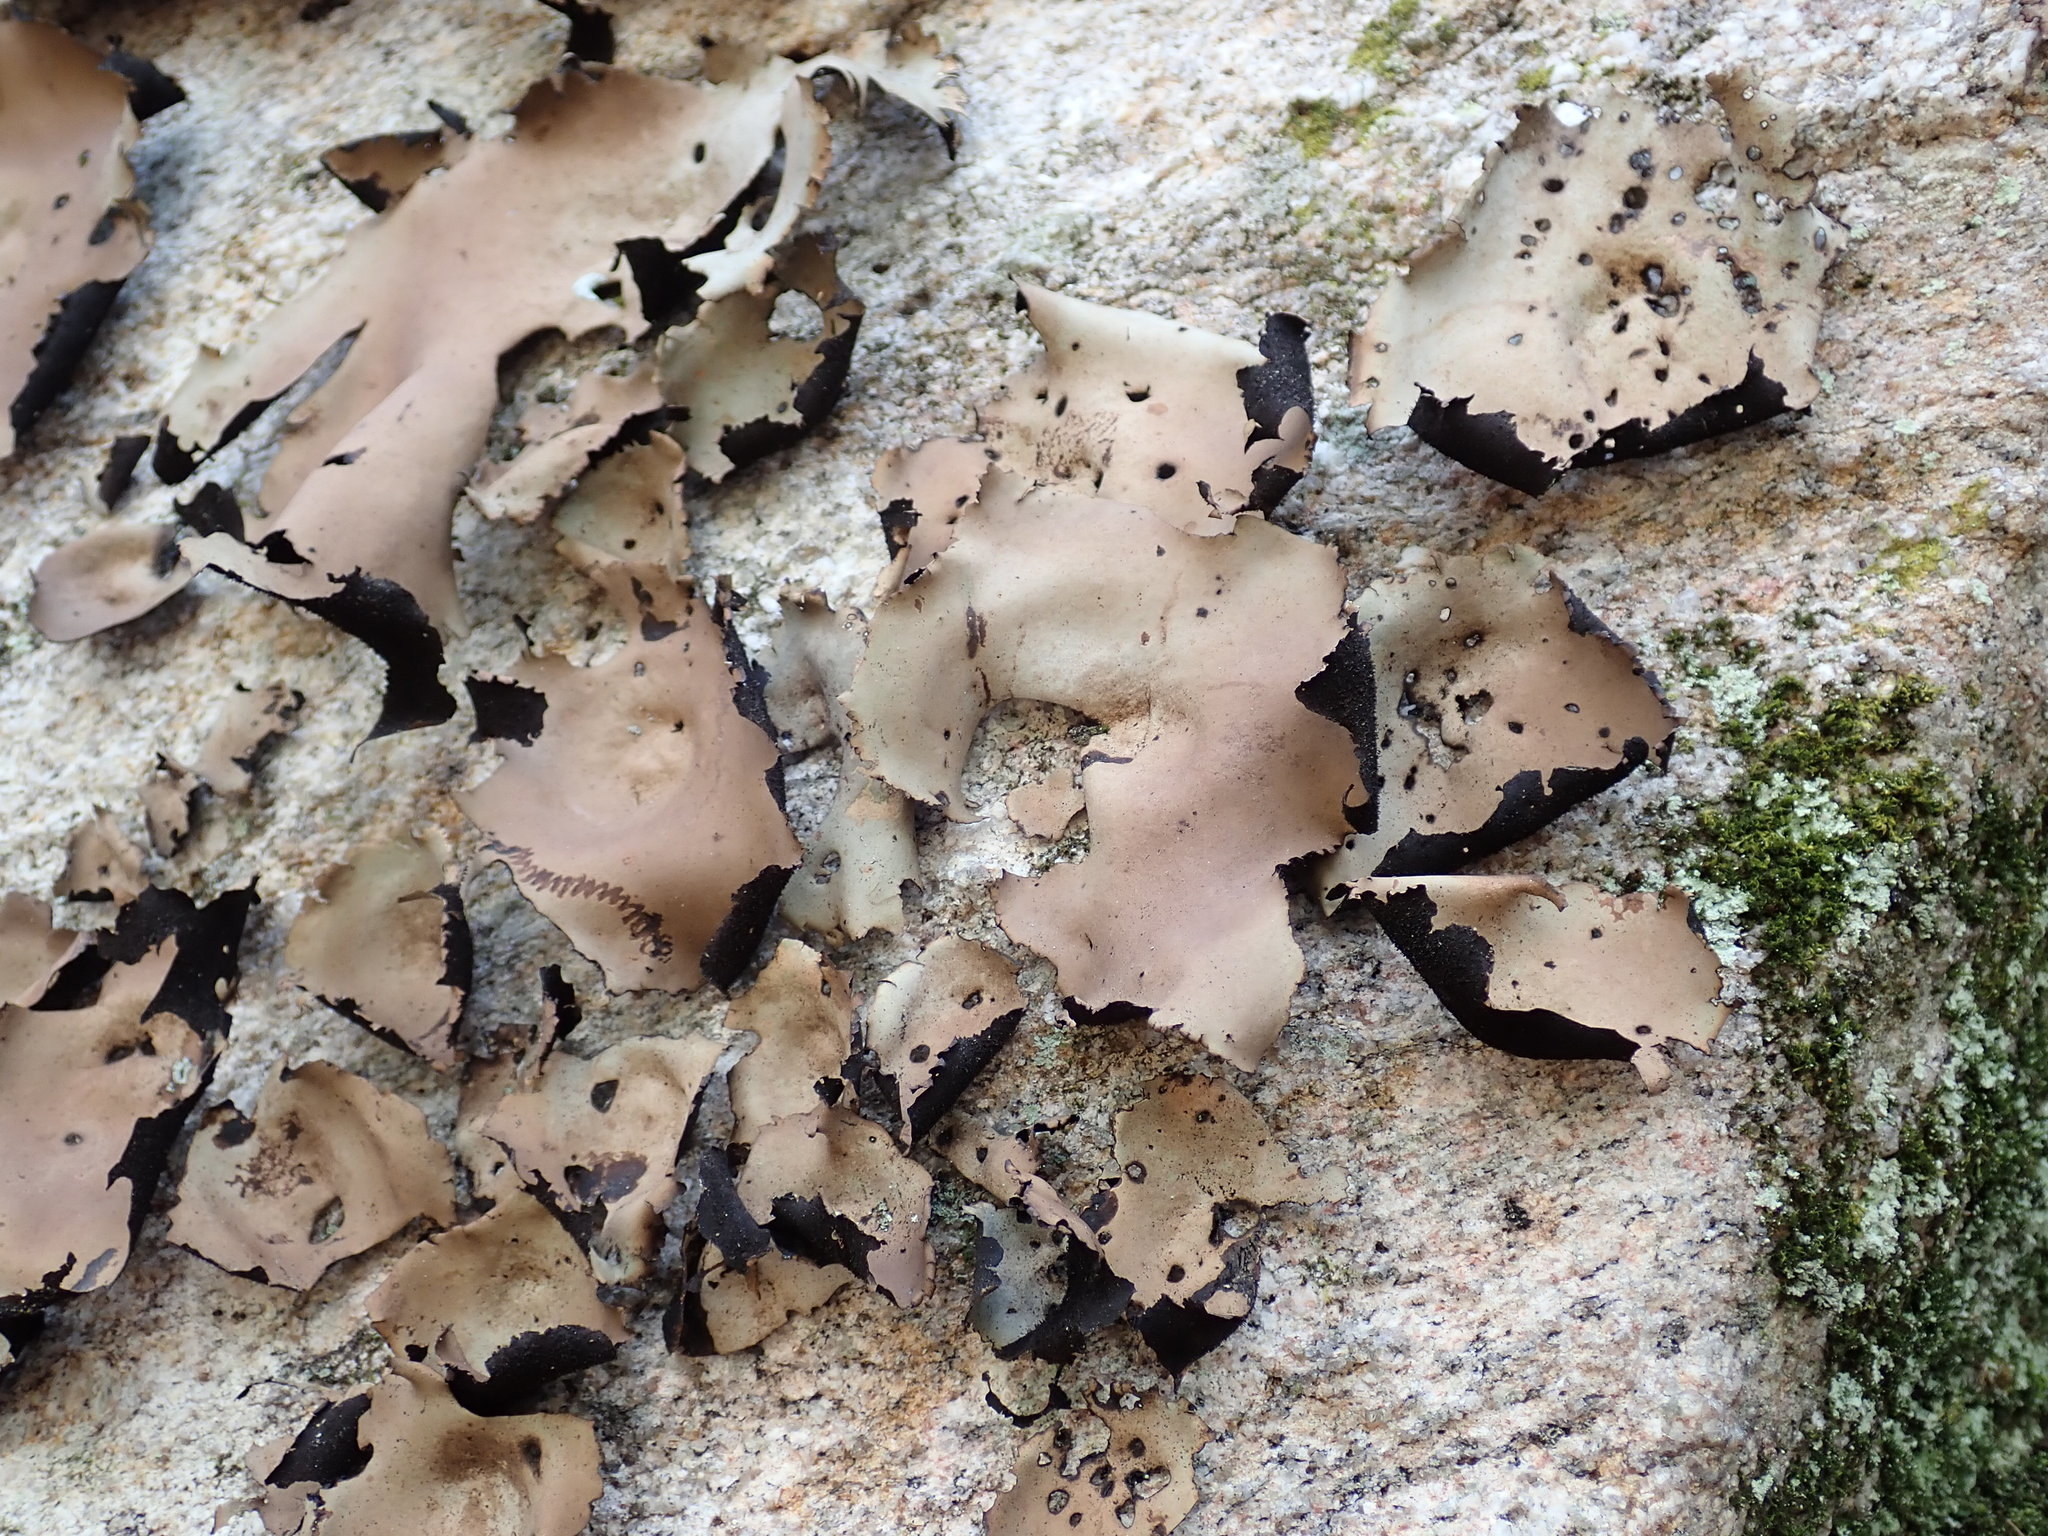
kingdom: Fungi
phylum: Ascomycota
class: Lecanoromycetes
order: Umbilicariales
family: Umbilicariaceae
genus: Umbilicaria
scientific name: Umbilicaria mammulata
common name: Smooth rock tripe
